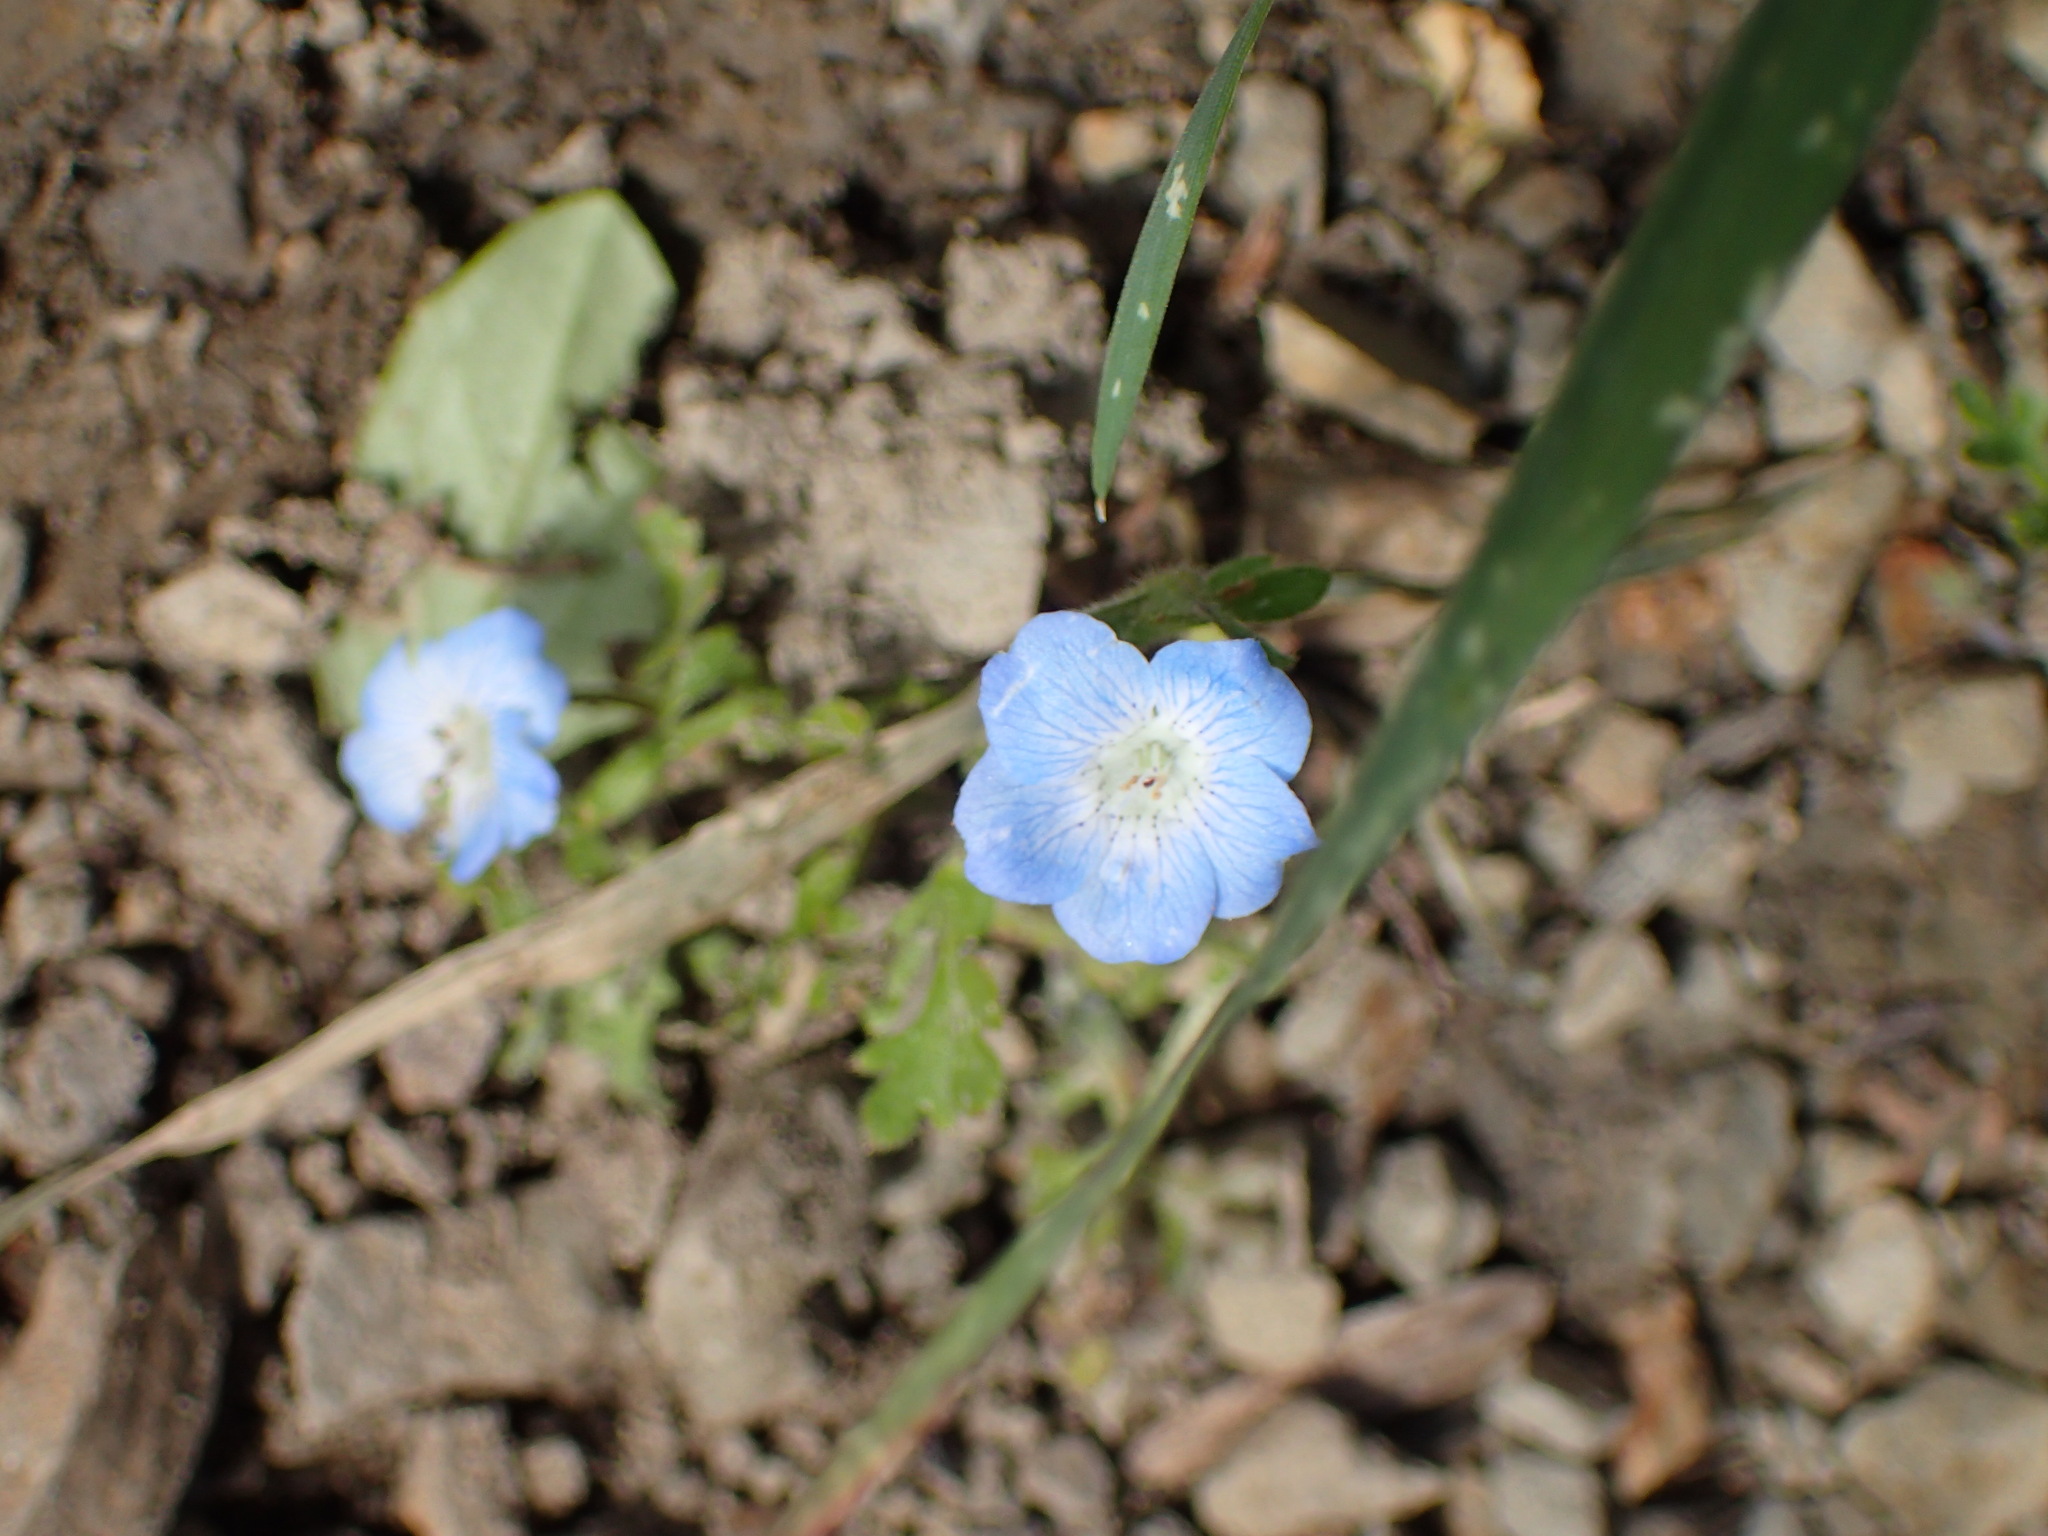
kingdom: Plantae
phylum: Tracheophyta
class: Magnoliopsida
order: Boraginales
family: Hydrophyllaceae
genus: Nemophila
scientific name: Nemophila menziesii
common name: Baby's-blue-eyes
